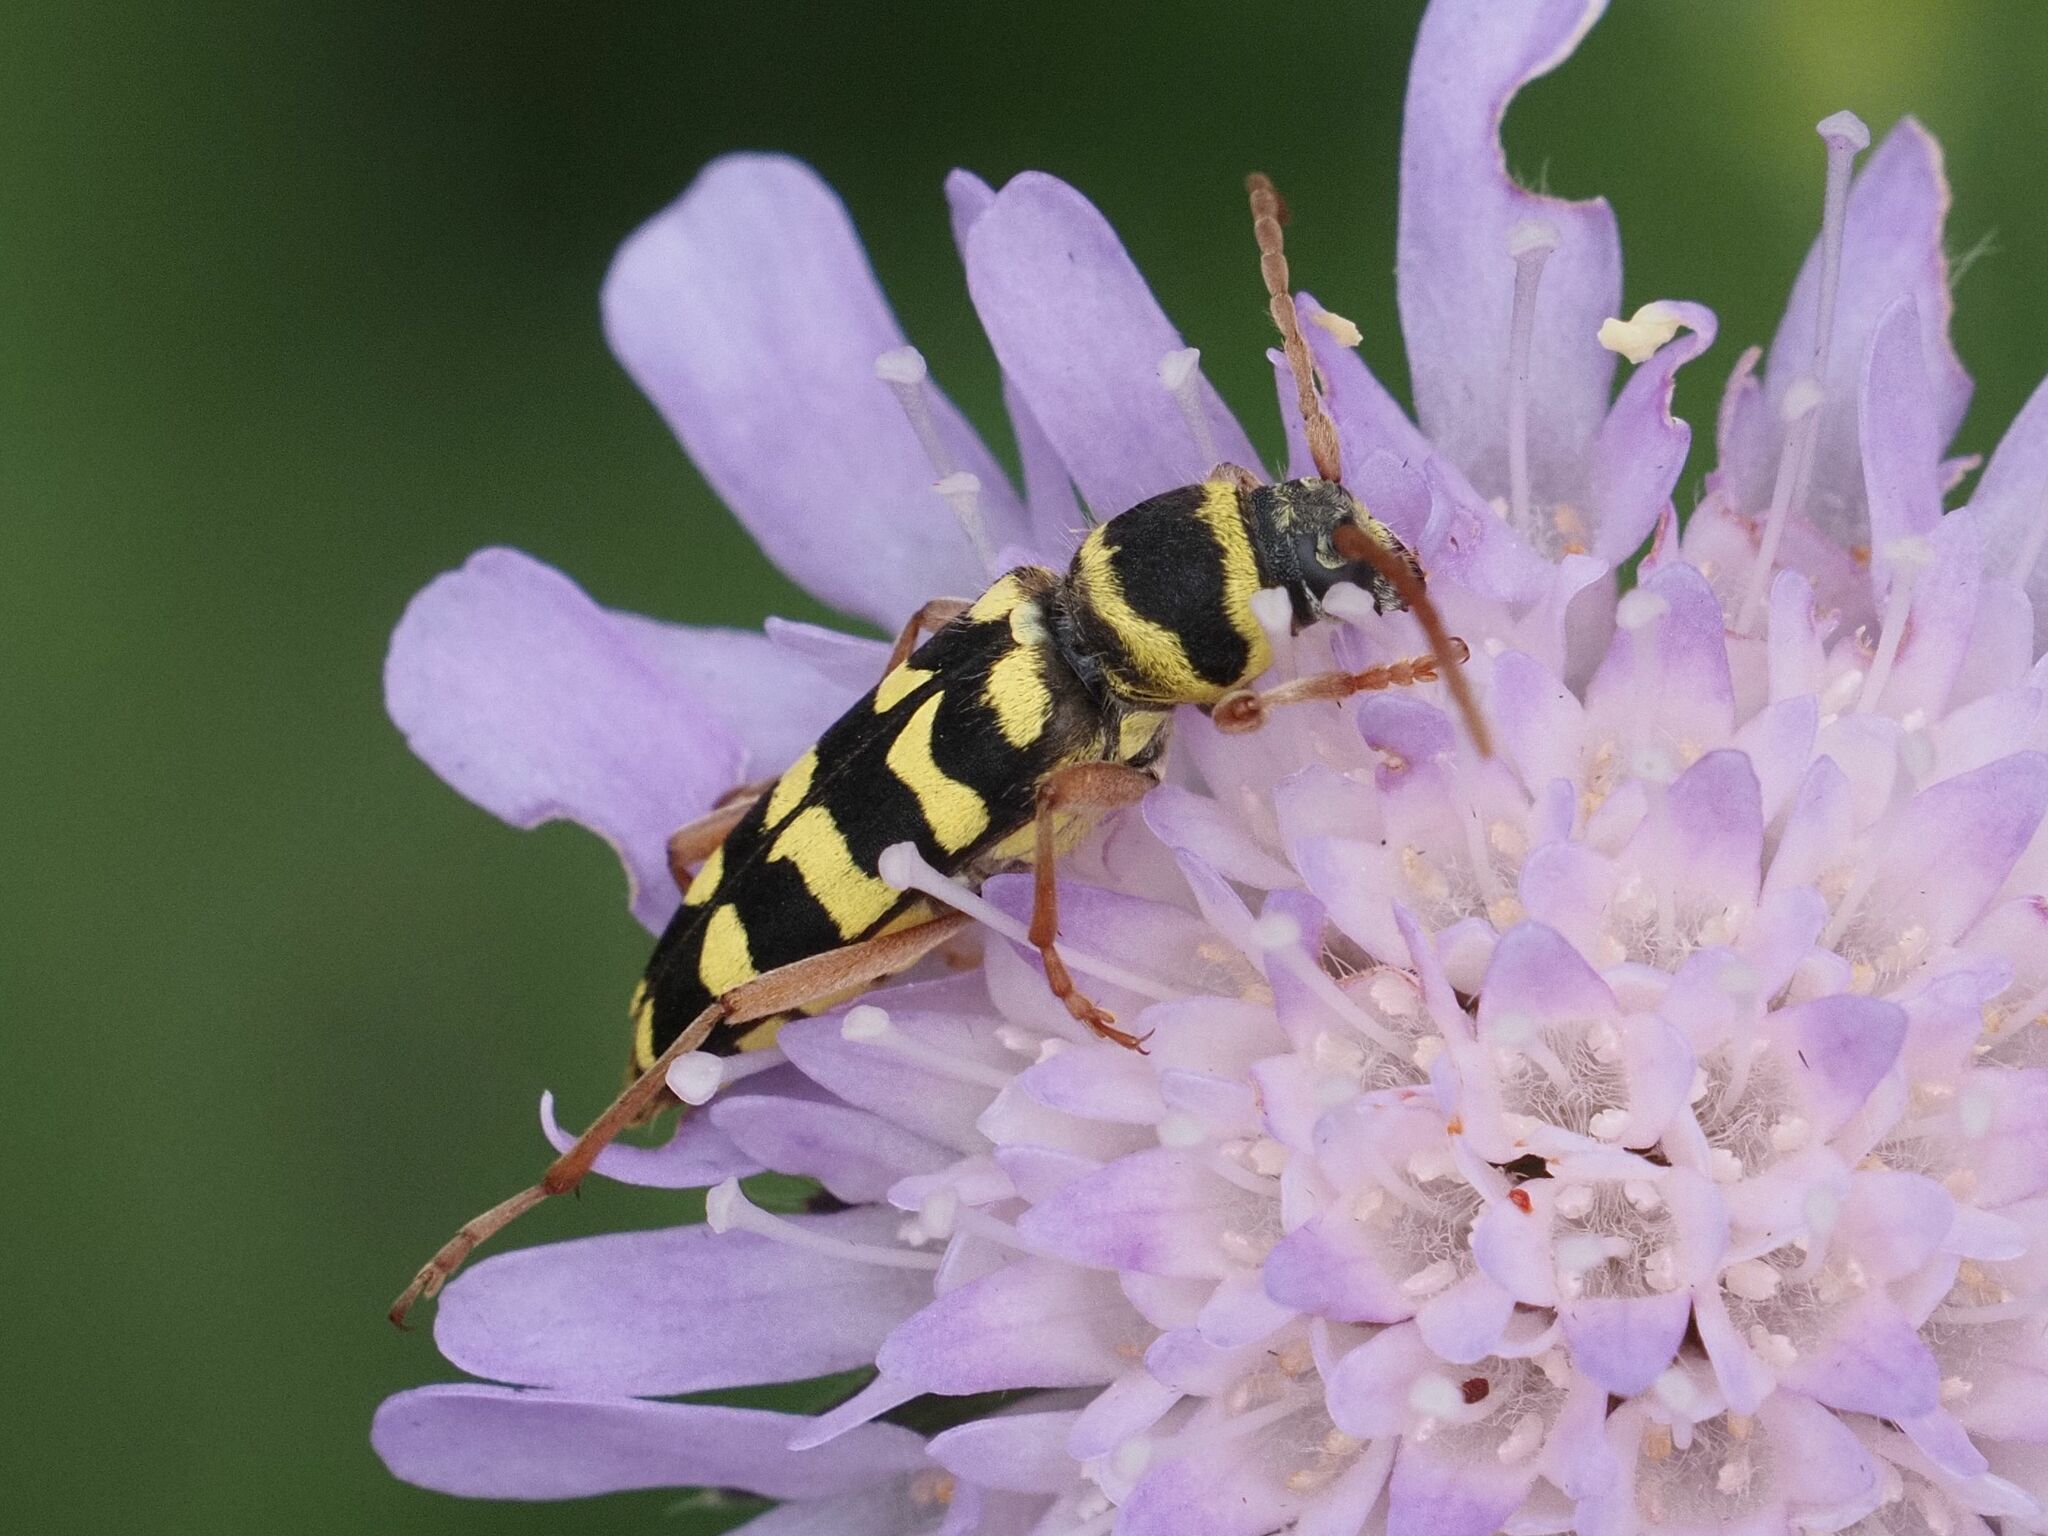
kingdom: Animalia
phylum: Arthropoda
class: Insecta
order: Coleoptera
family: Cerambycidae
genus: Plagionotus
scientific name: Plagionotus floralis
